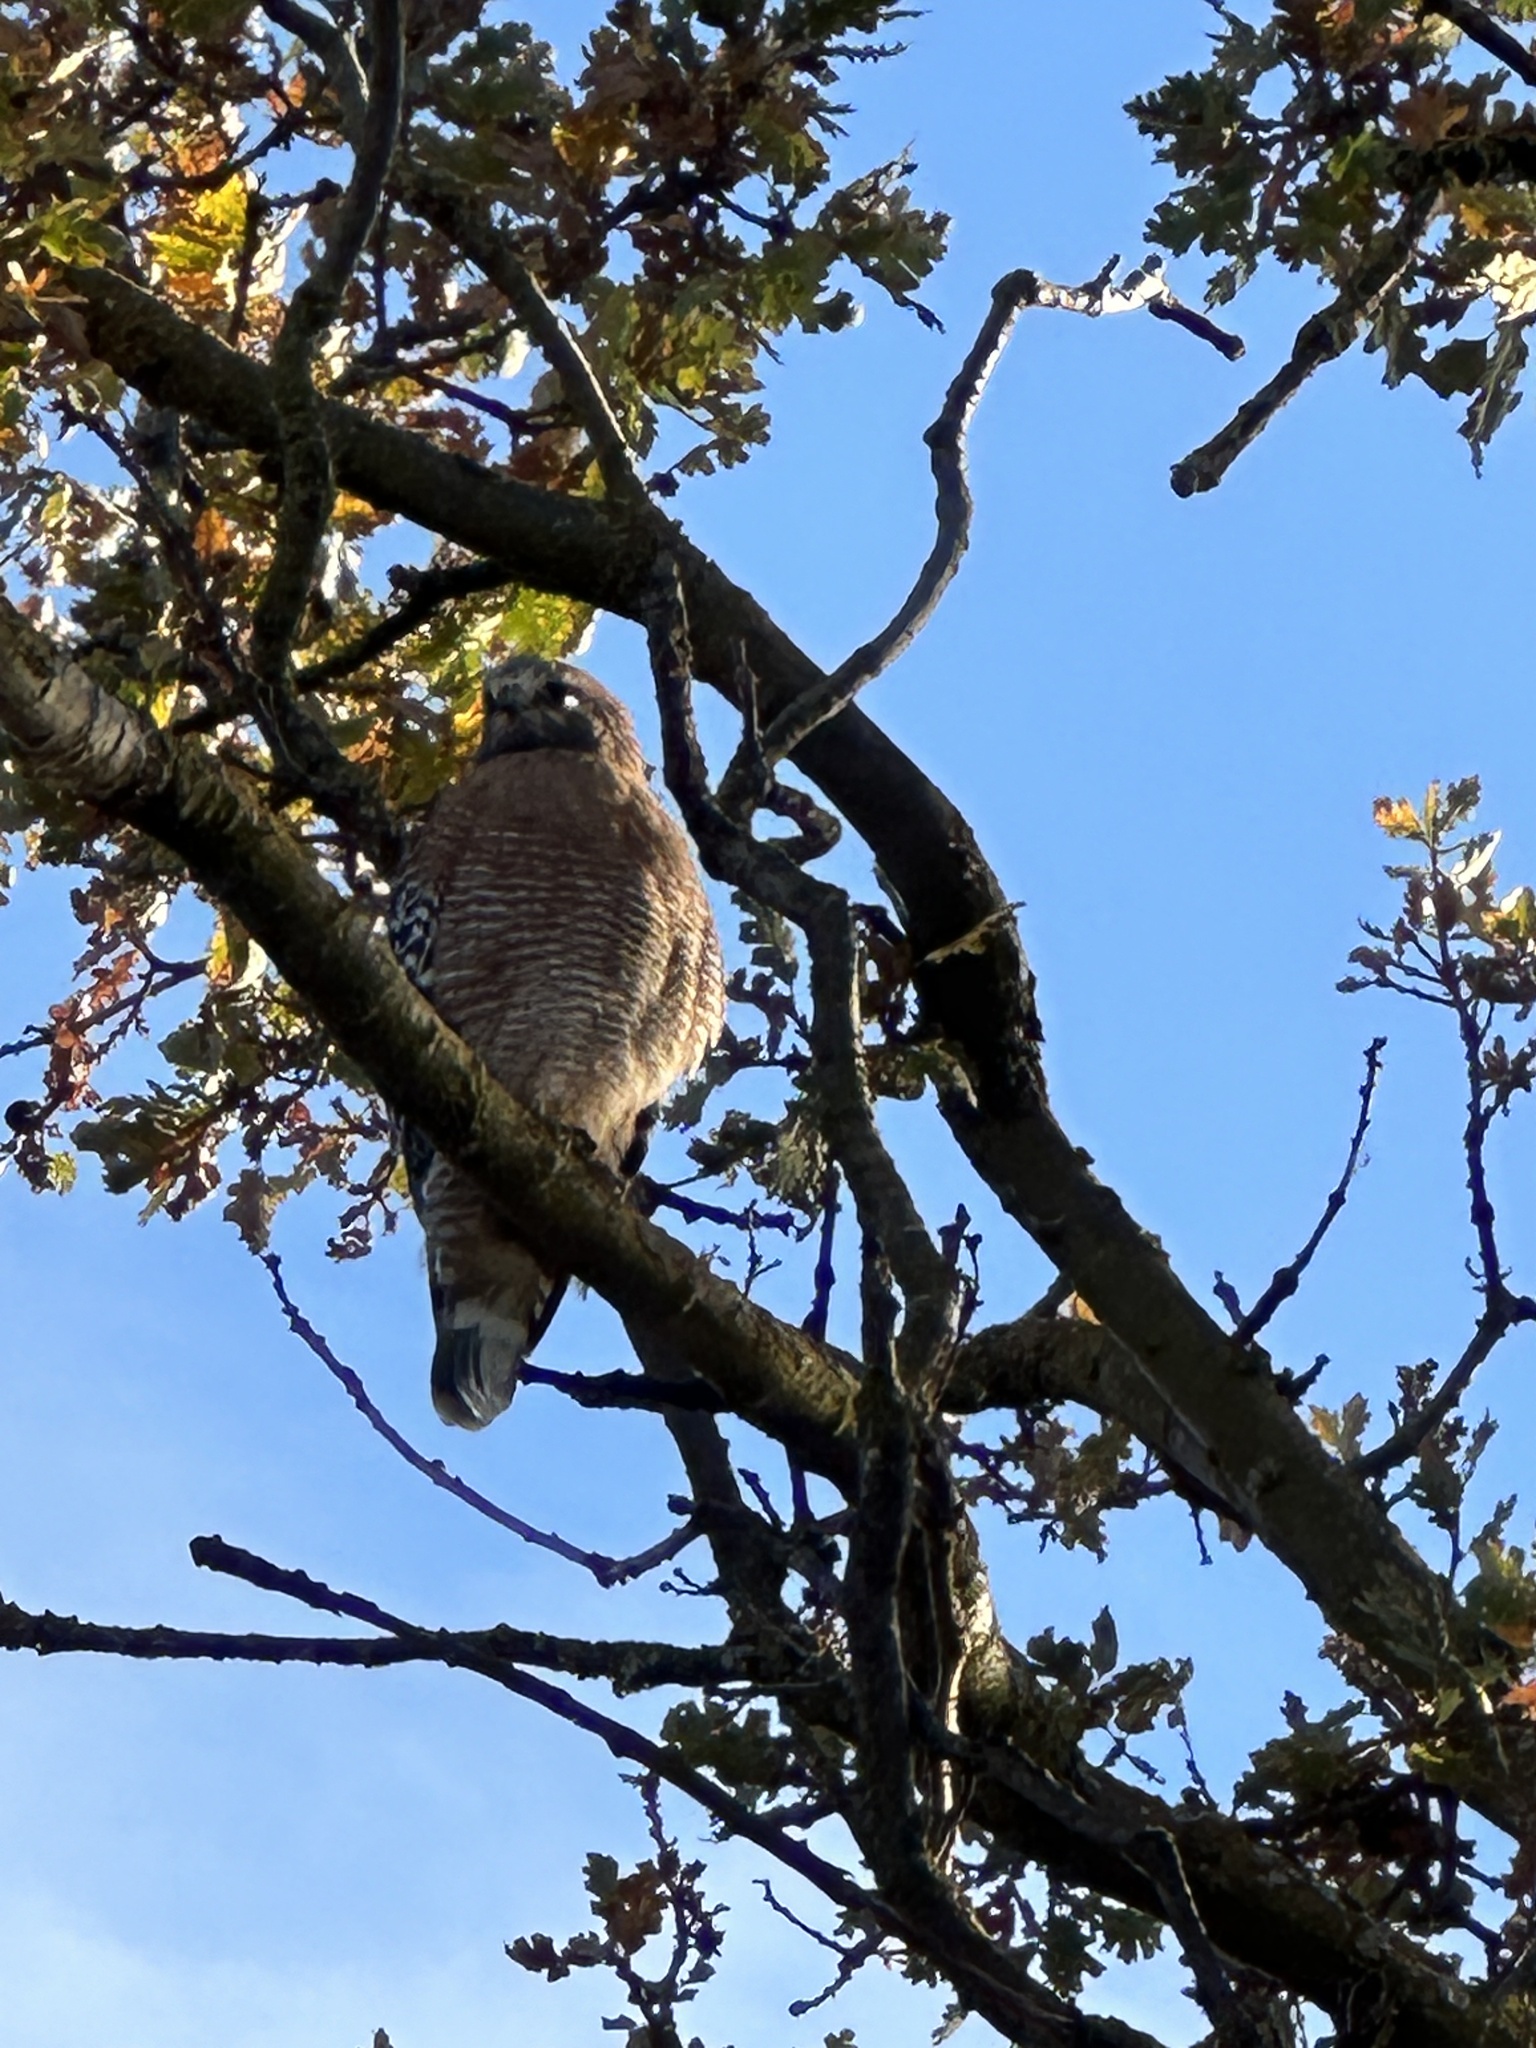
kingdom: Animalia
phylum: Chordata
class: Aves
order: Accipitriformes
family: Accipitridae
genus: Buteo
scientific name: Buteo lineatus
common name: Red-shouldered hawk
